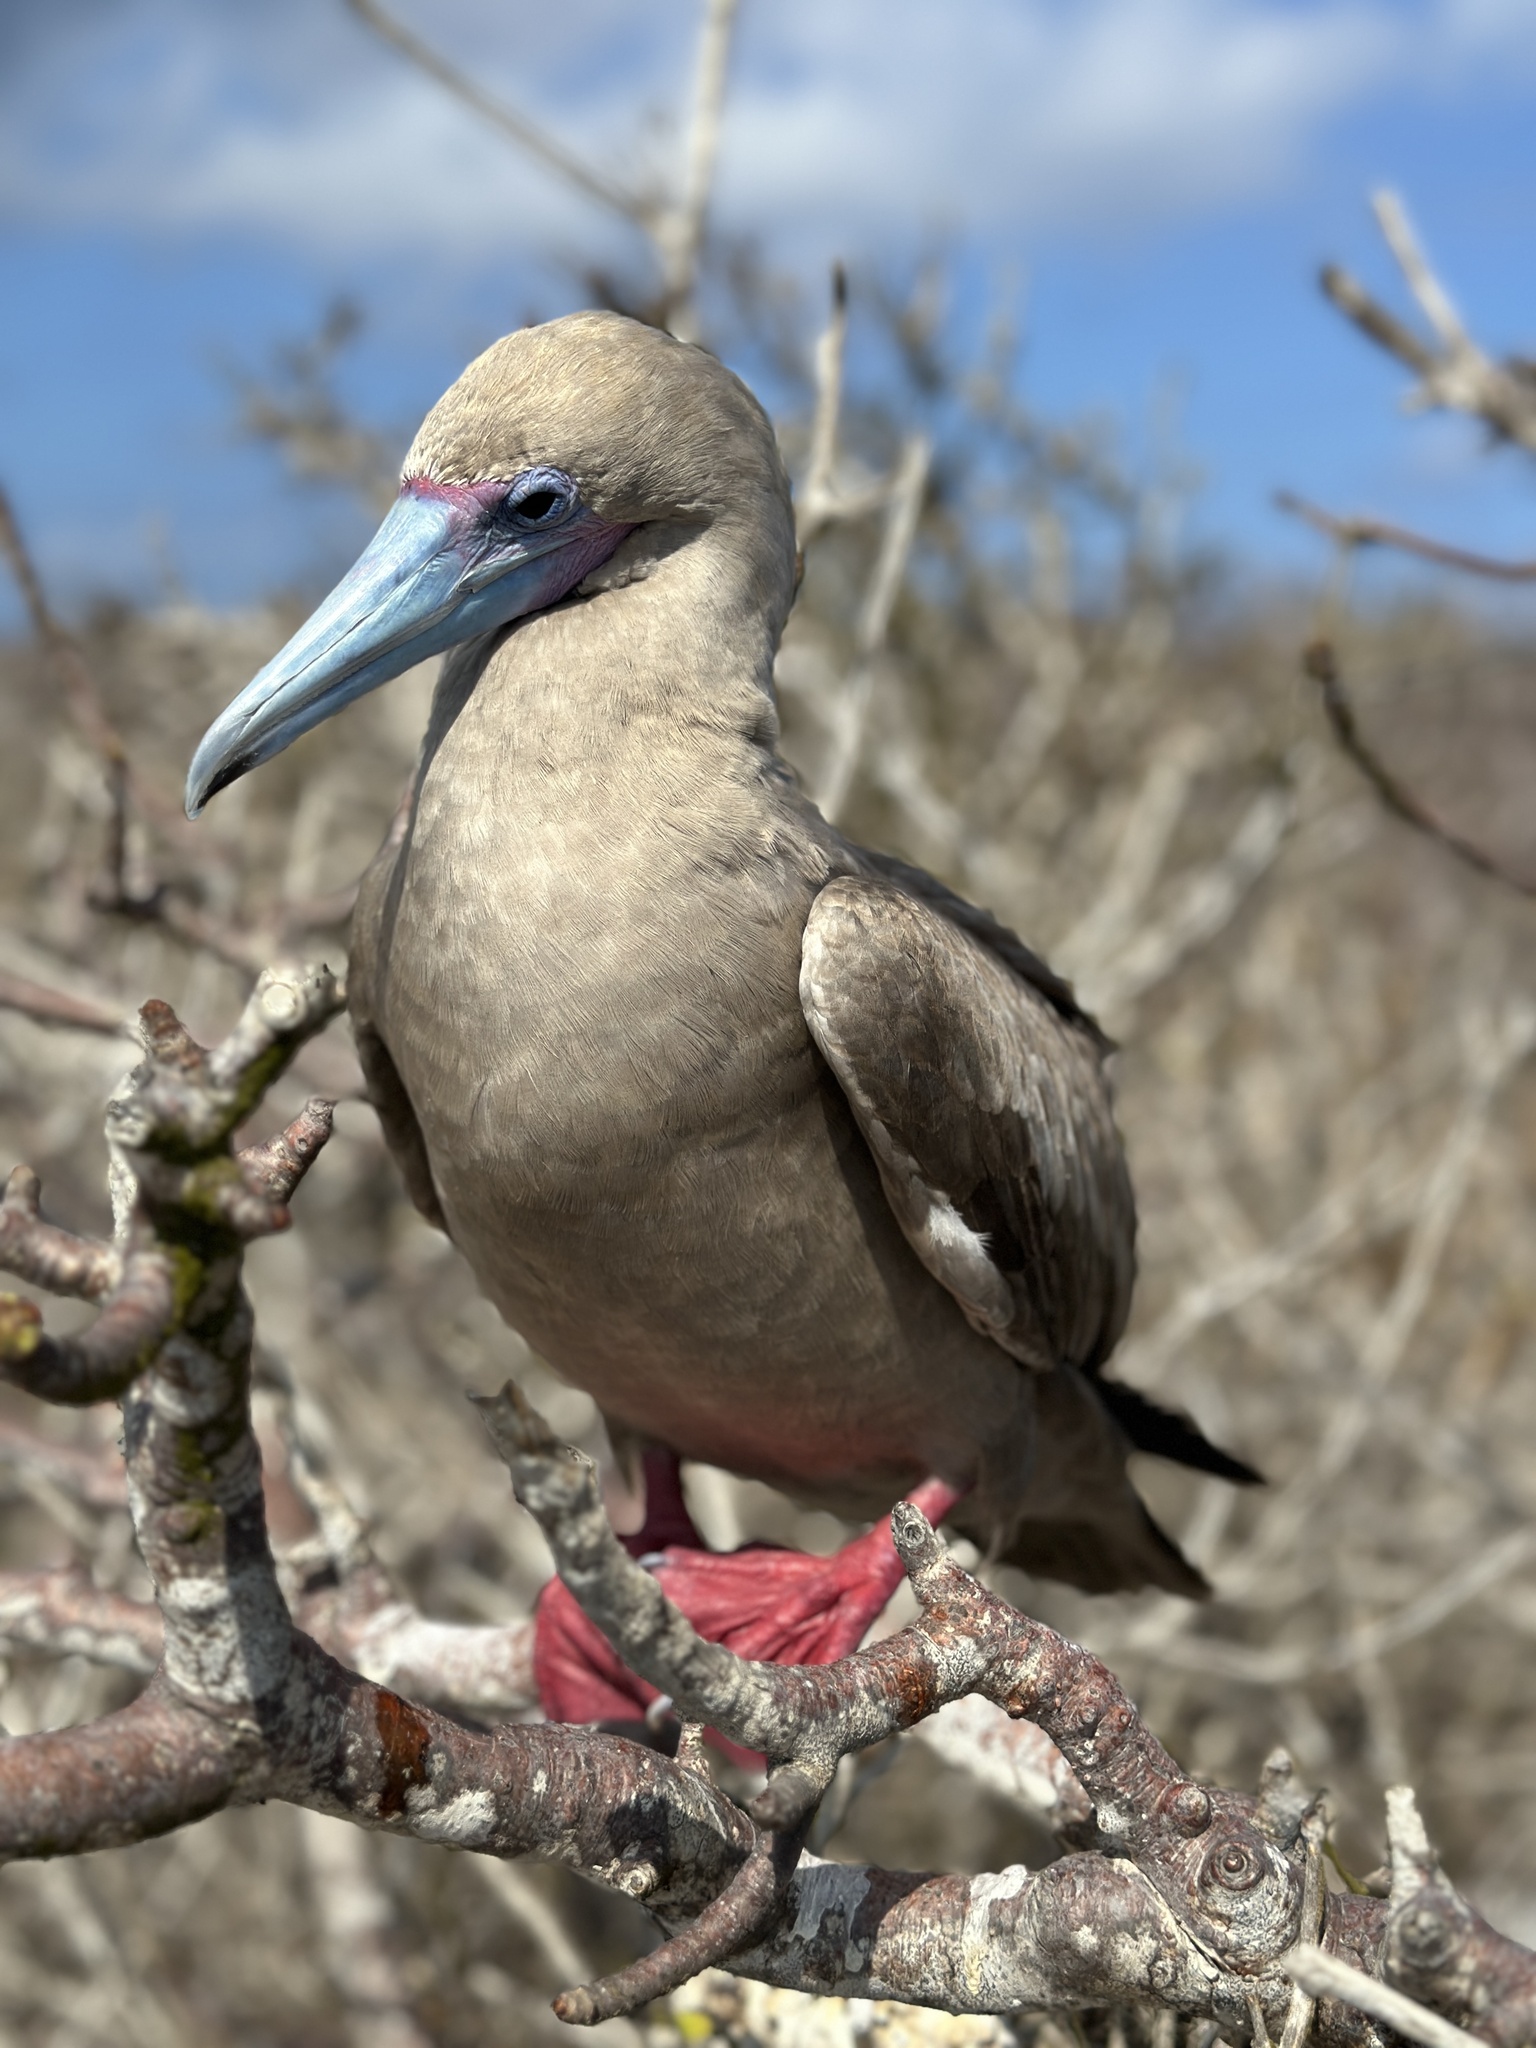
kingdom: Animalia
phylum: Chordata
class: Aves
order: Suliformes
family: Sulidae
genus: Sula
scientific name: Sula sula
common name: Red-footed booby
